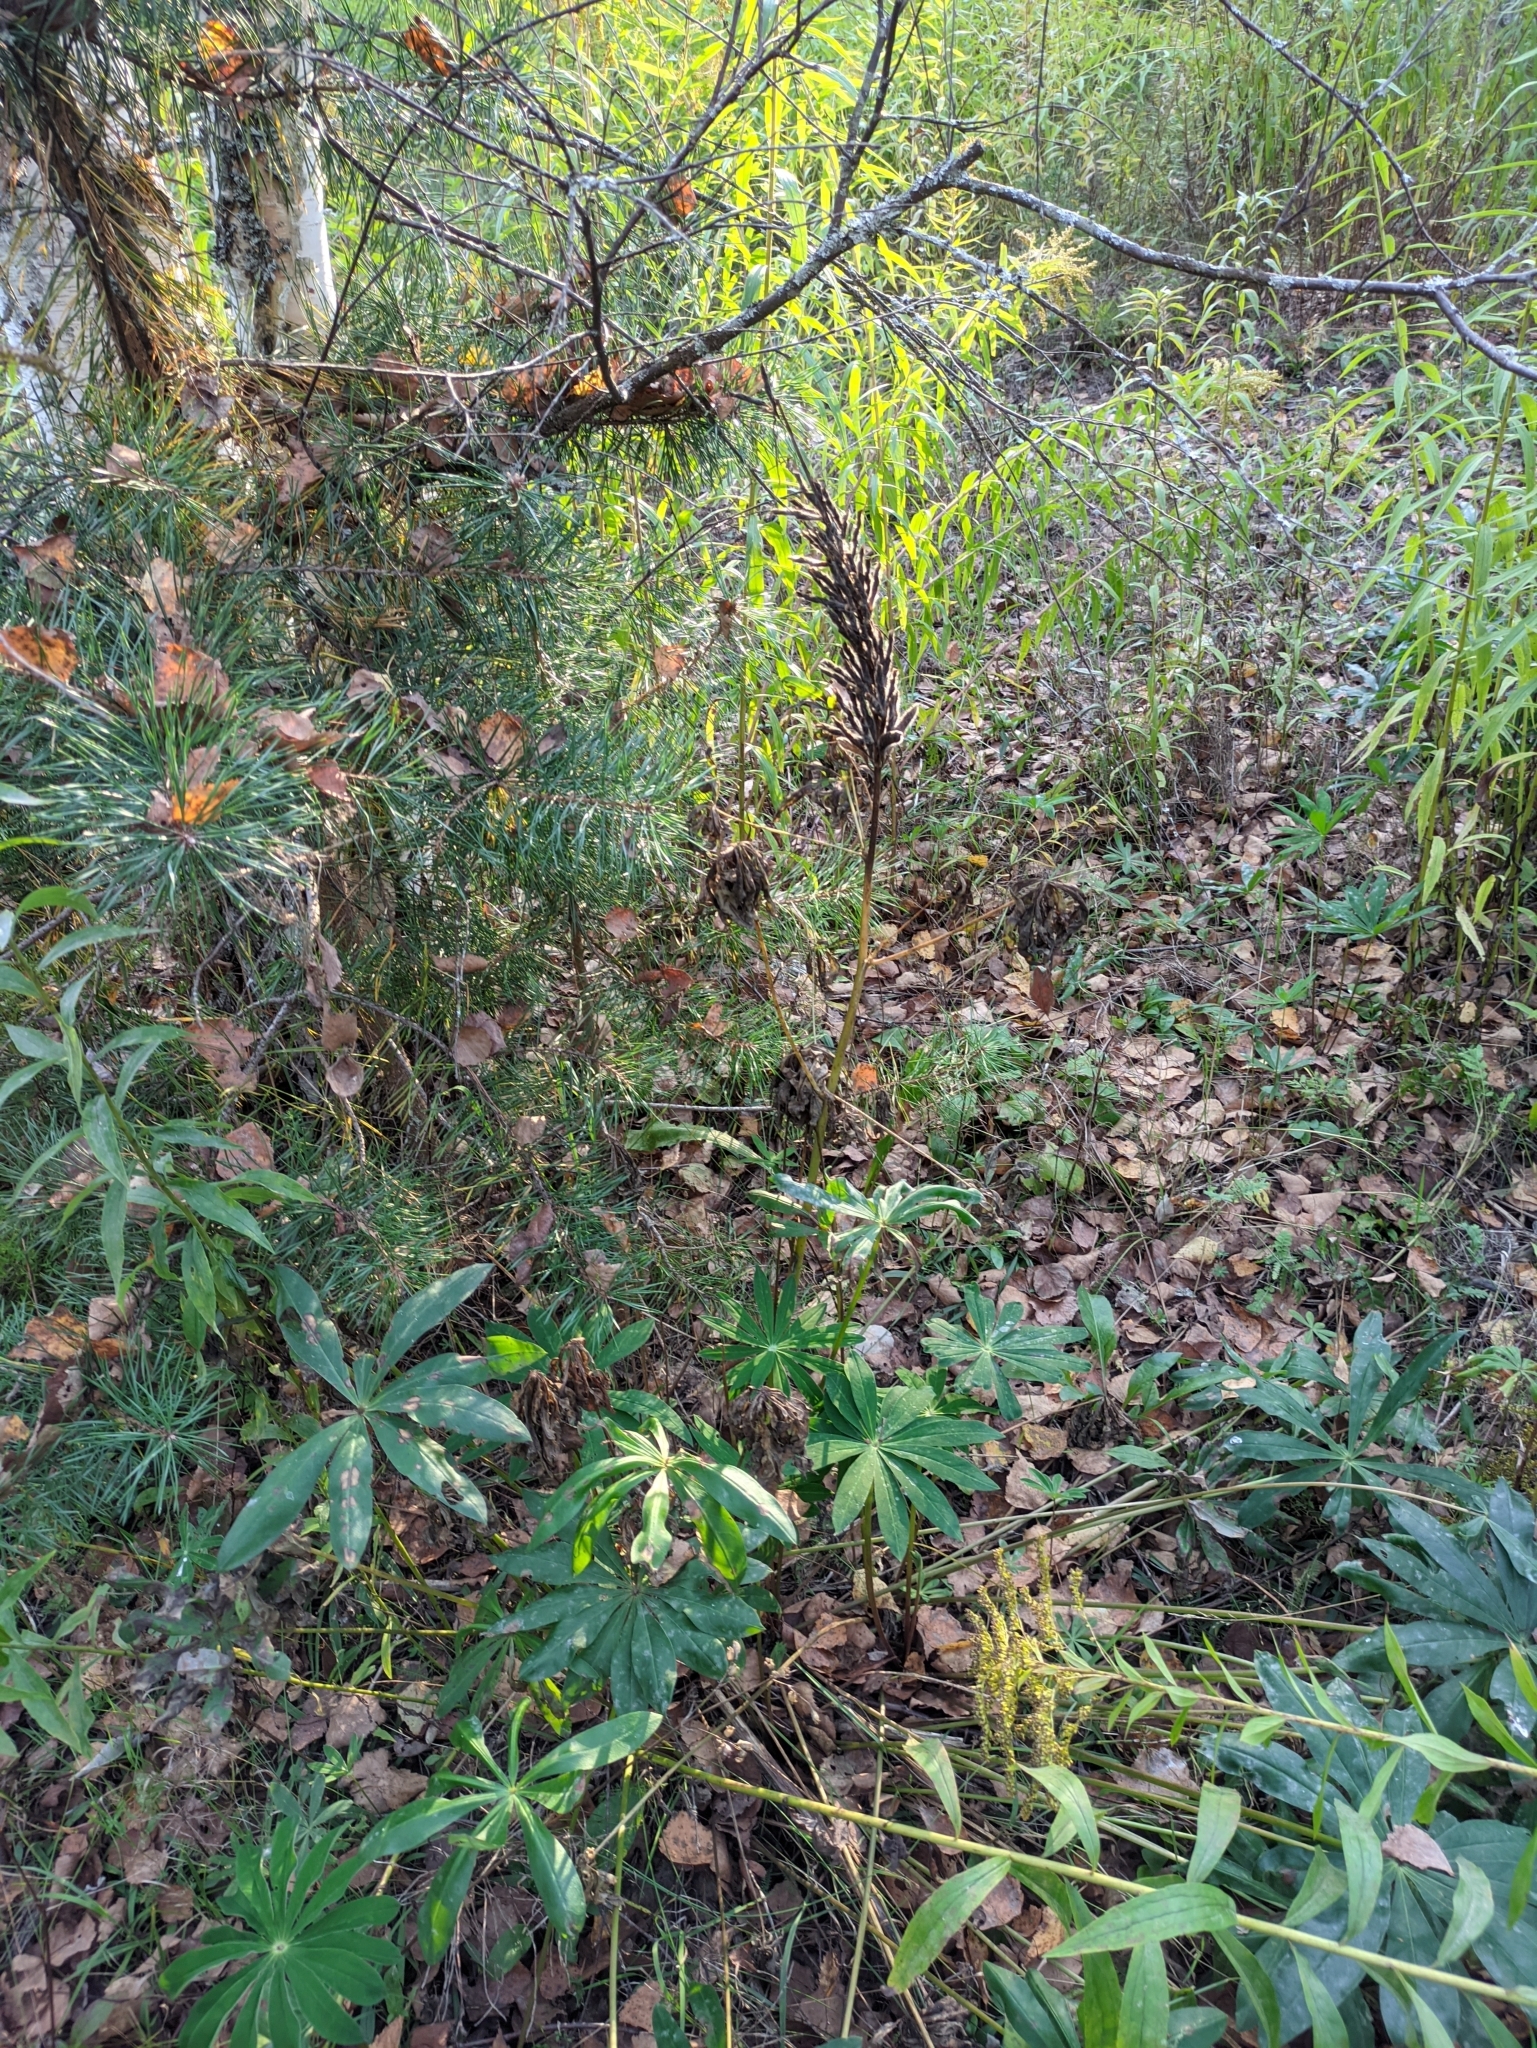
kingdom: Plantae
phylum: Tracheophyta
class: Magnoliopsida
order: Fabales
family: Fabaceae
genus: Lupinus
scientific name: Lupinus polyphyllus
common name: Garden lupin
